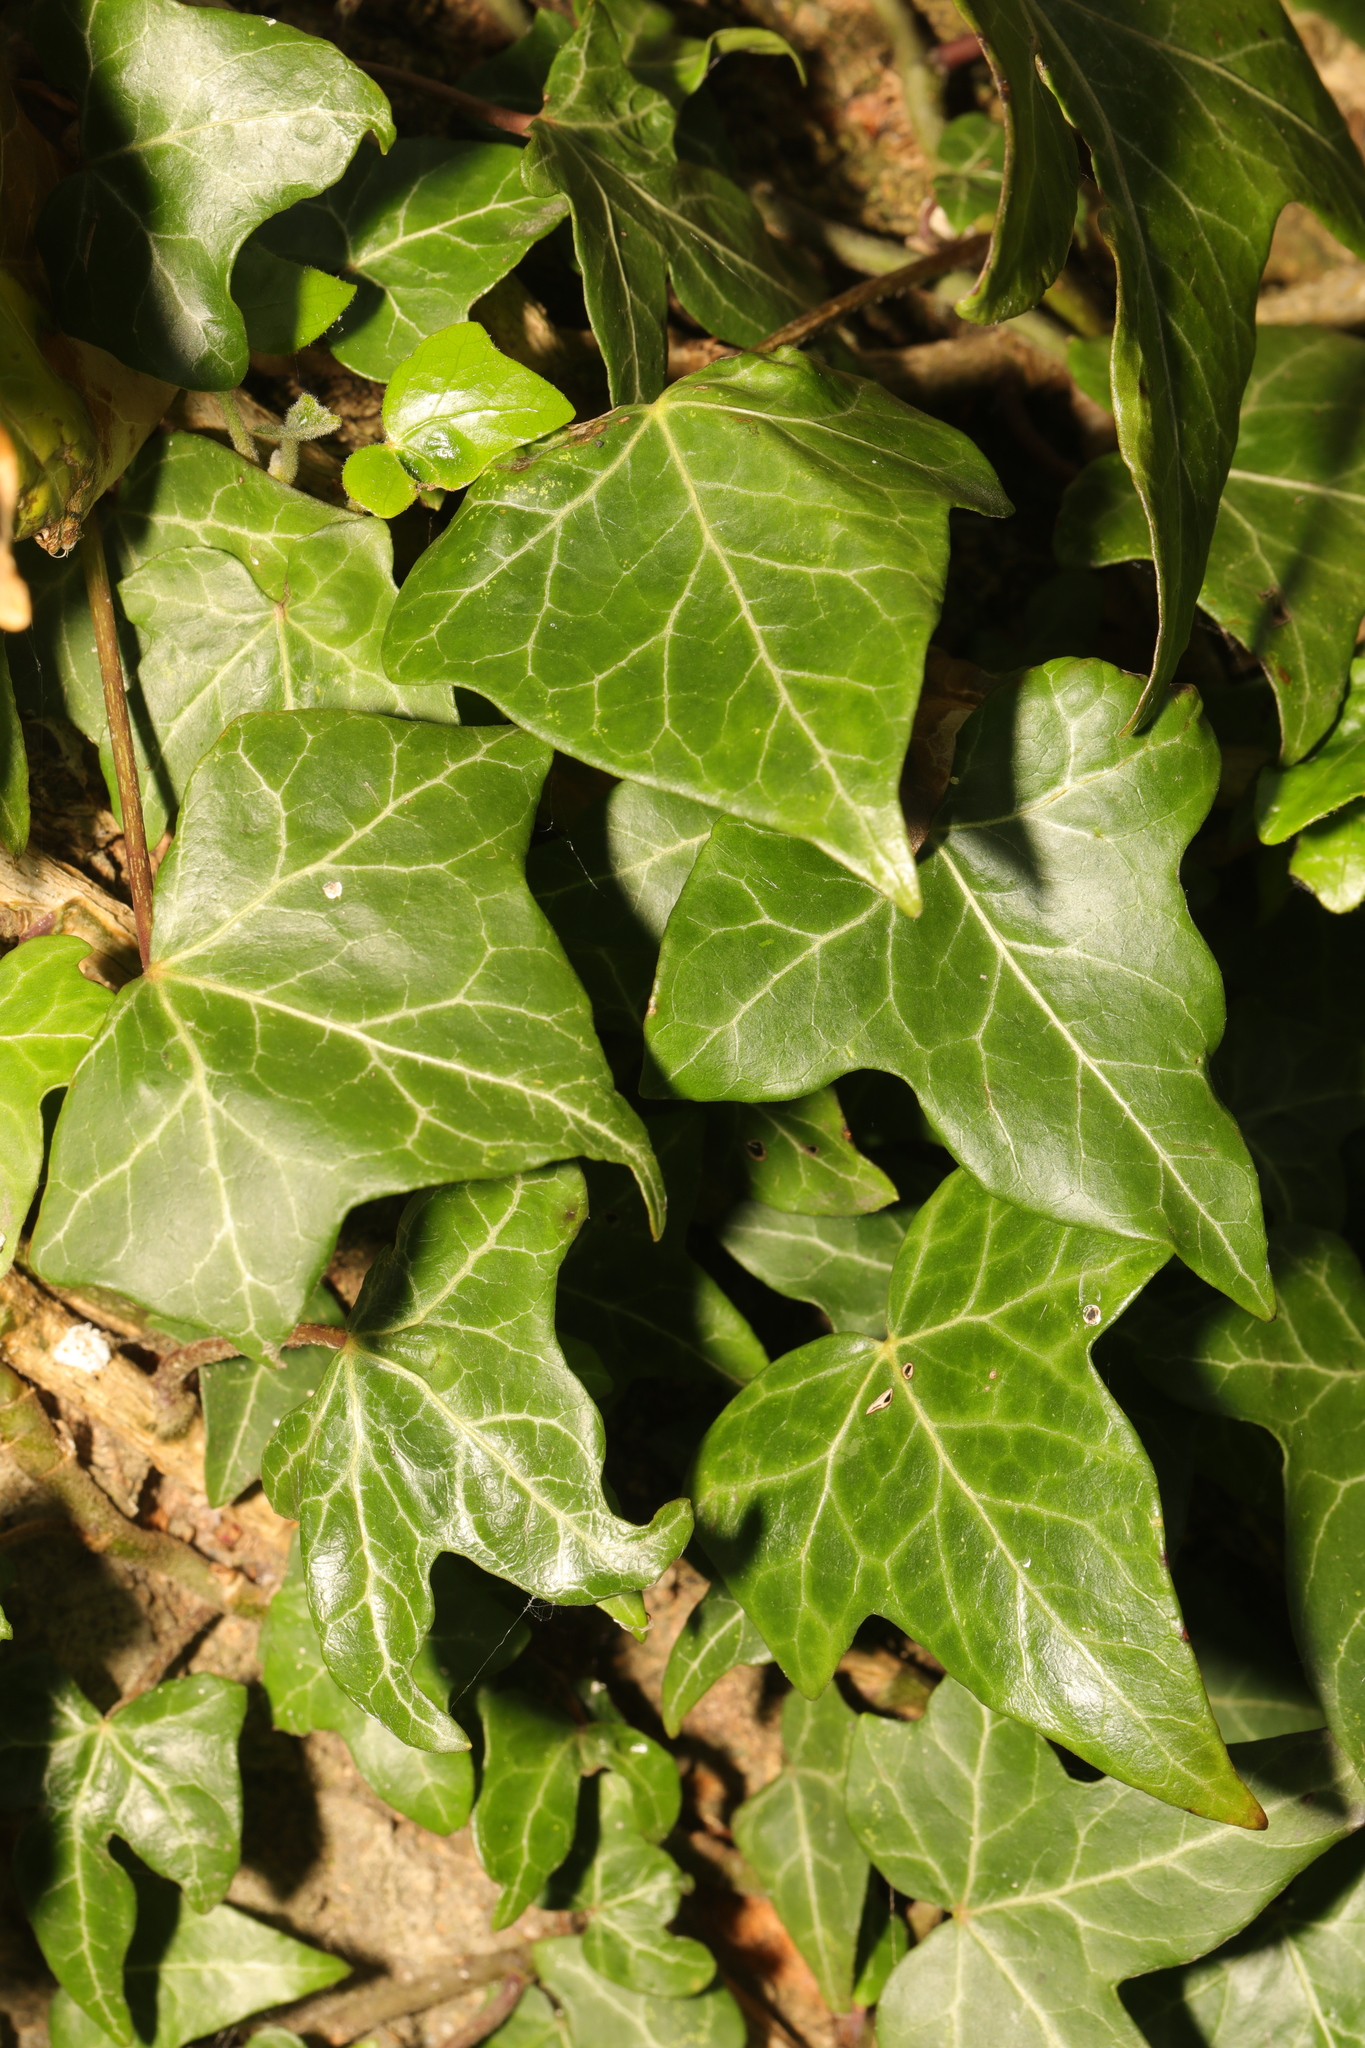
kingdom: Plantae
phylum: Tracheophyta
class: Magnoliopsida
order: Apiales
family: Araliaceae
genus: Hedera
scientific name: Hedera helix
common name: Ivy
